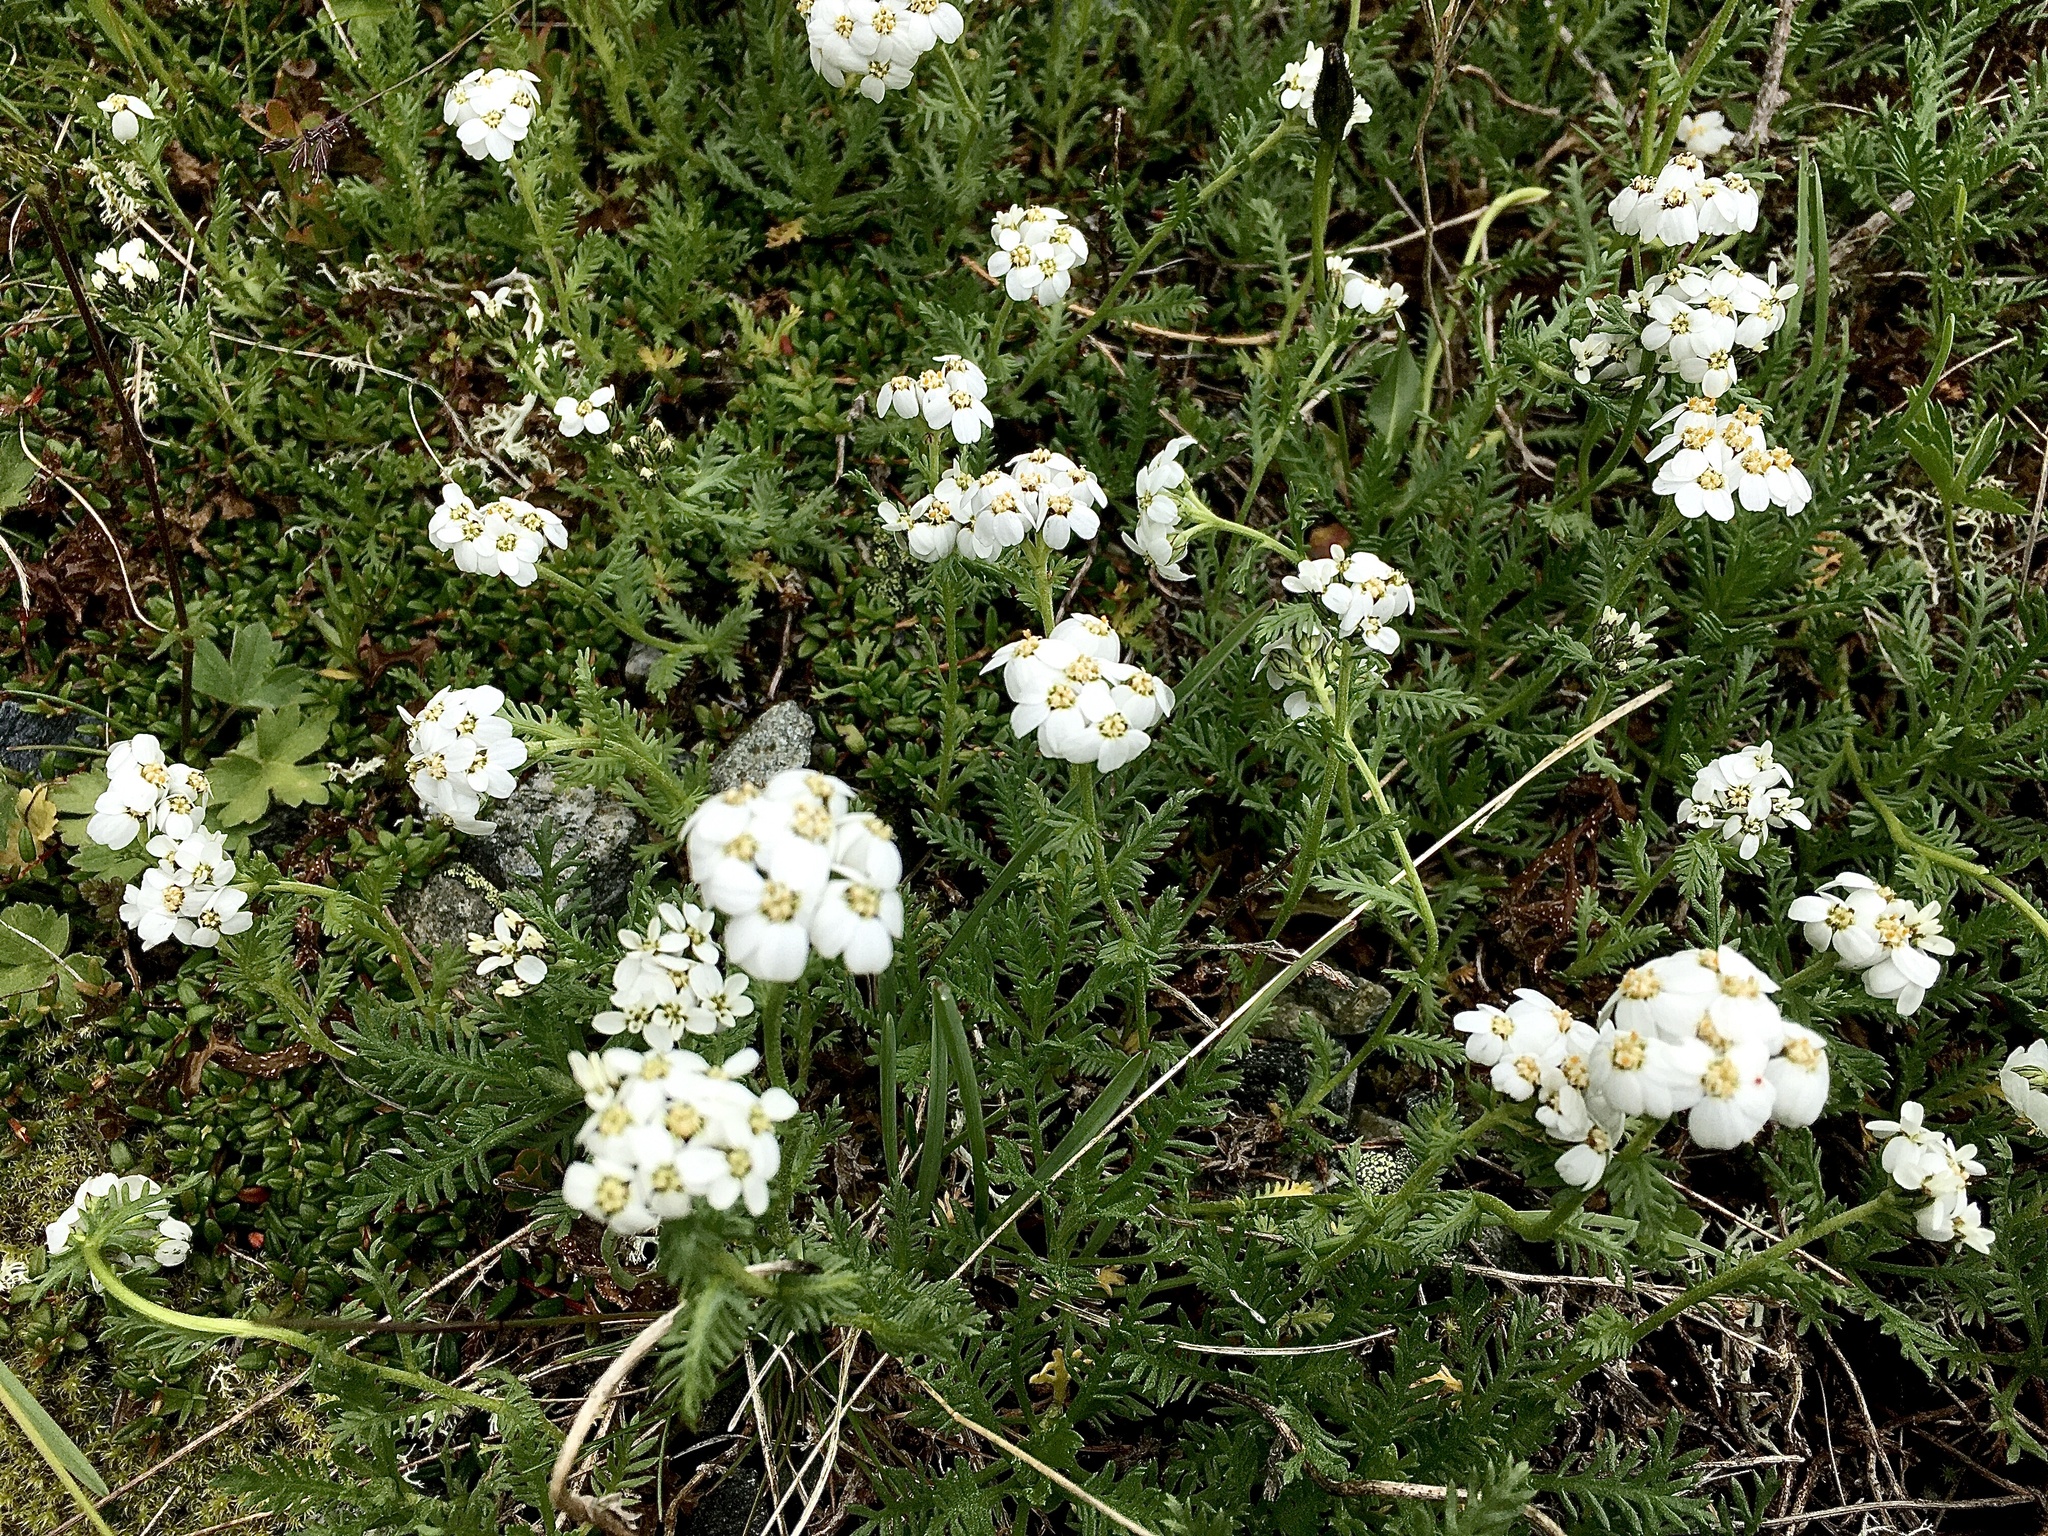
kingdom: Plantae
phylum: Tracheophyta
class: Magnoliopsida
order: Asterales
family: Asteraceae
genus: Achillea
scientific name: Achillea erba-rotta
